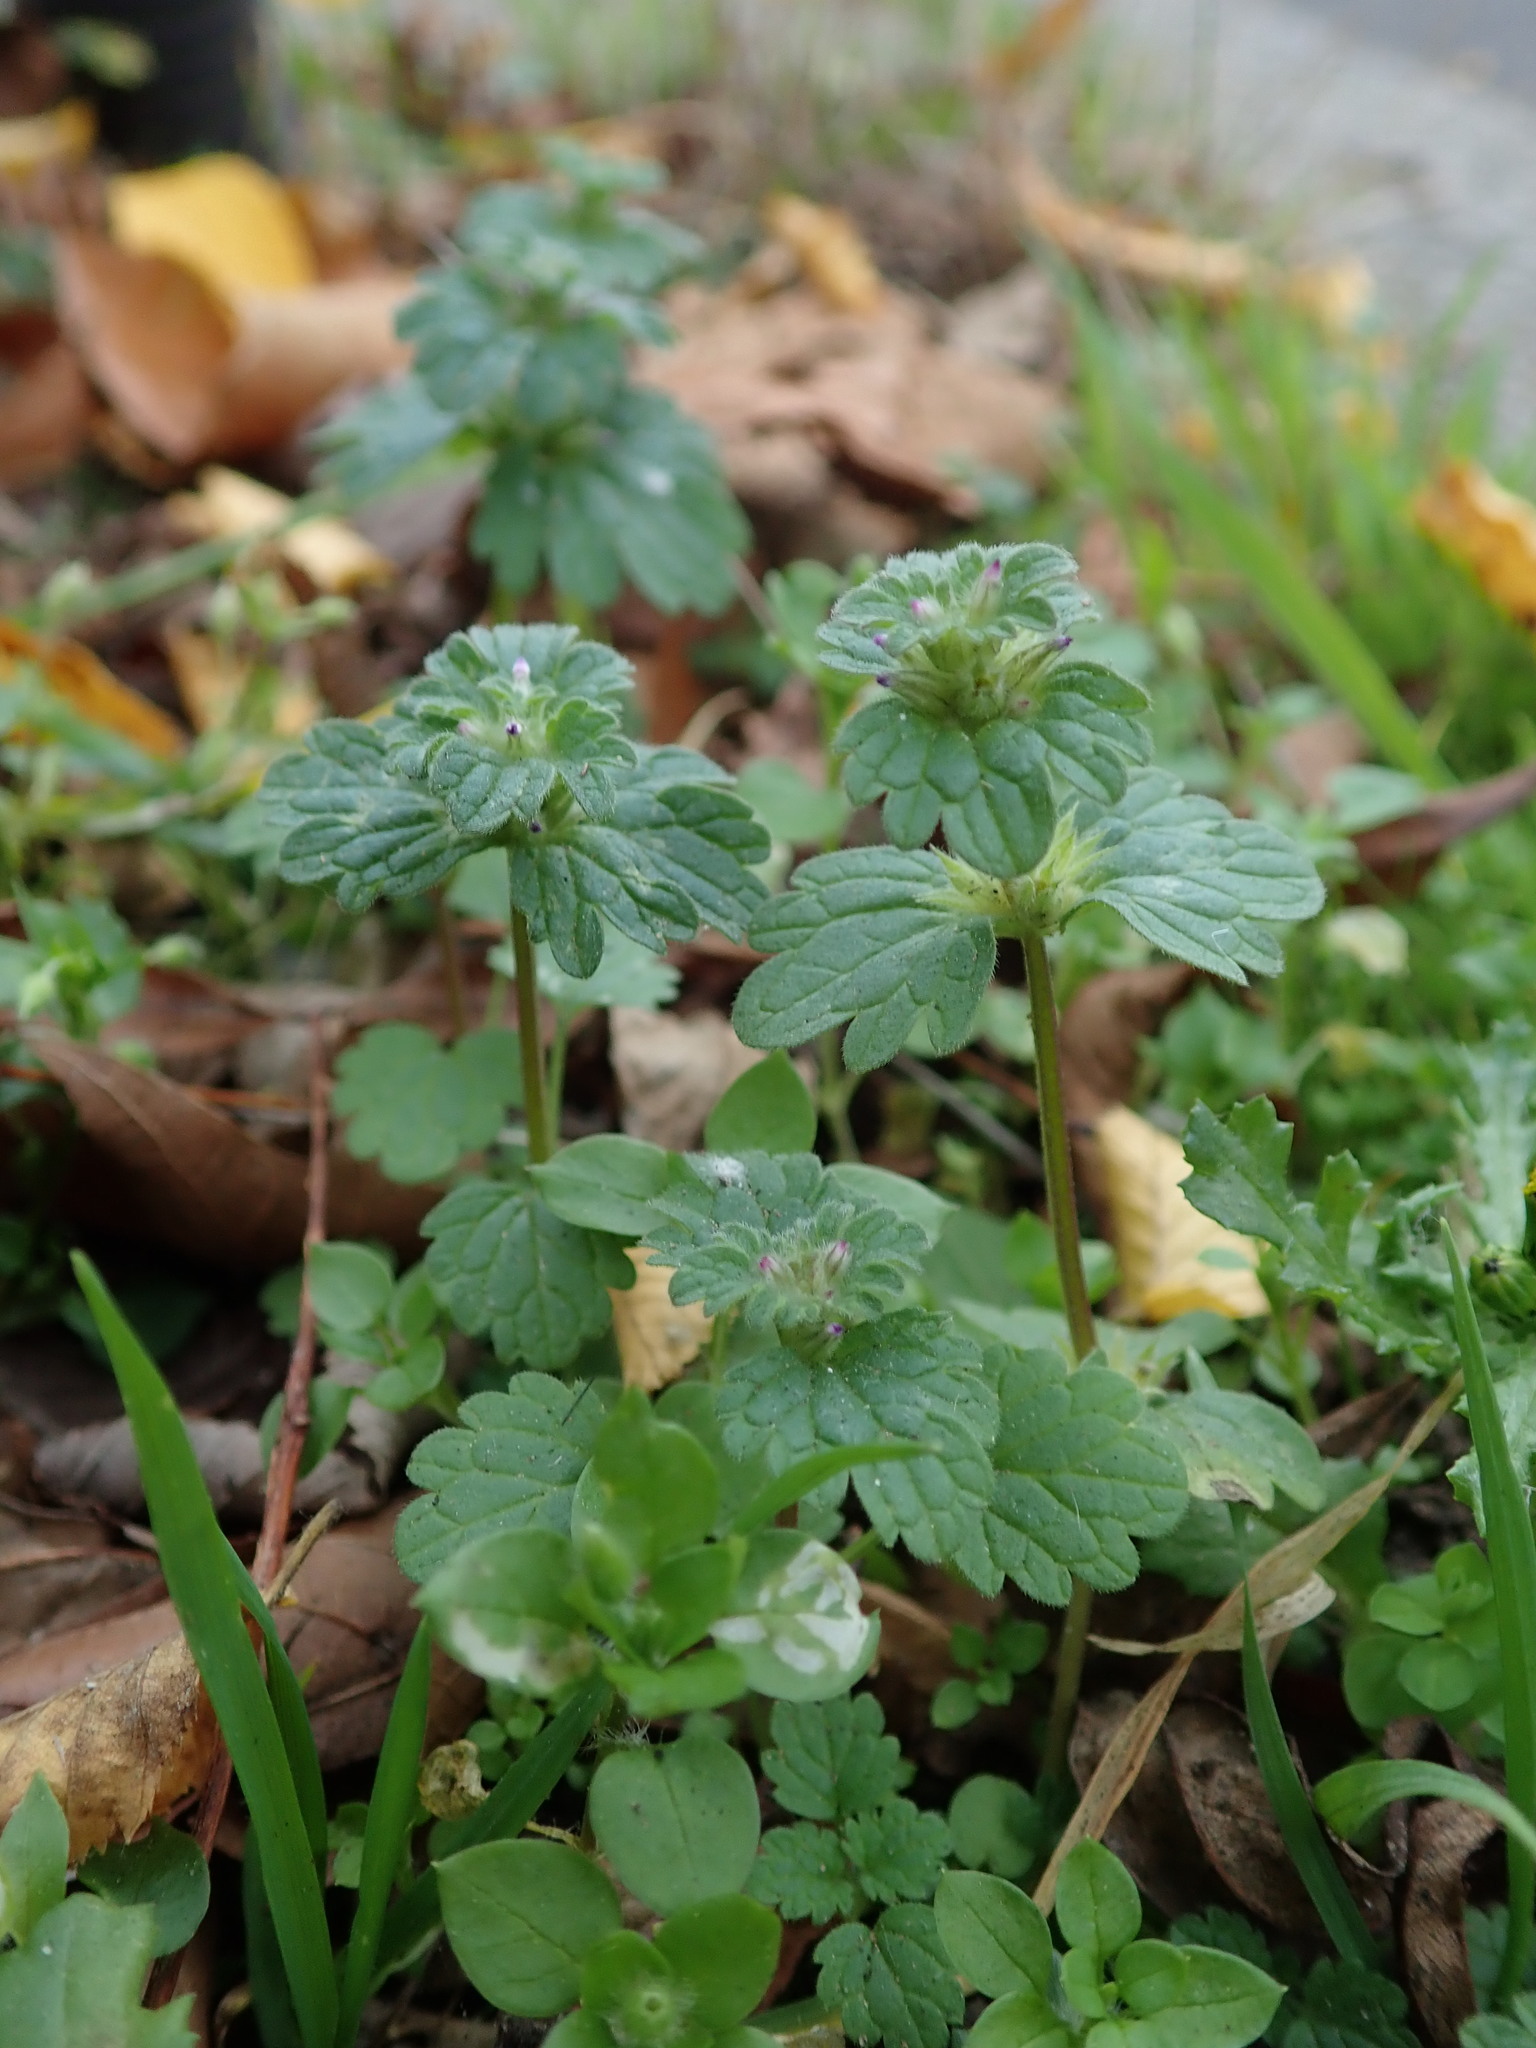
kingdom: Plantae
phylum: Tracheophyta
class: Magnoliopsida
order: Lamiales
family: Lamiaceae
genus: Lamium
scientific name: Lamium amplexicaule
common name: Henbit dead-nettle
